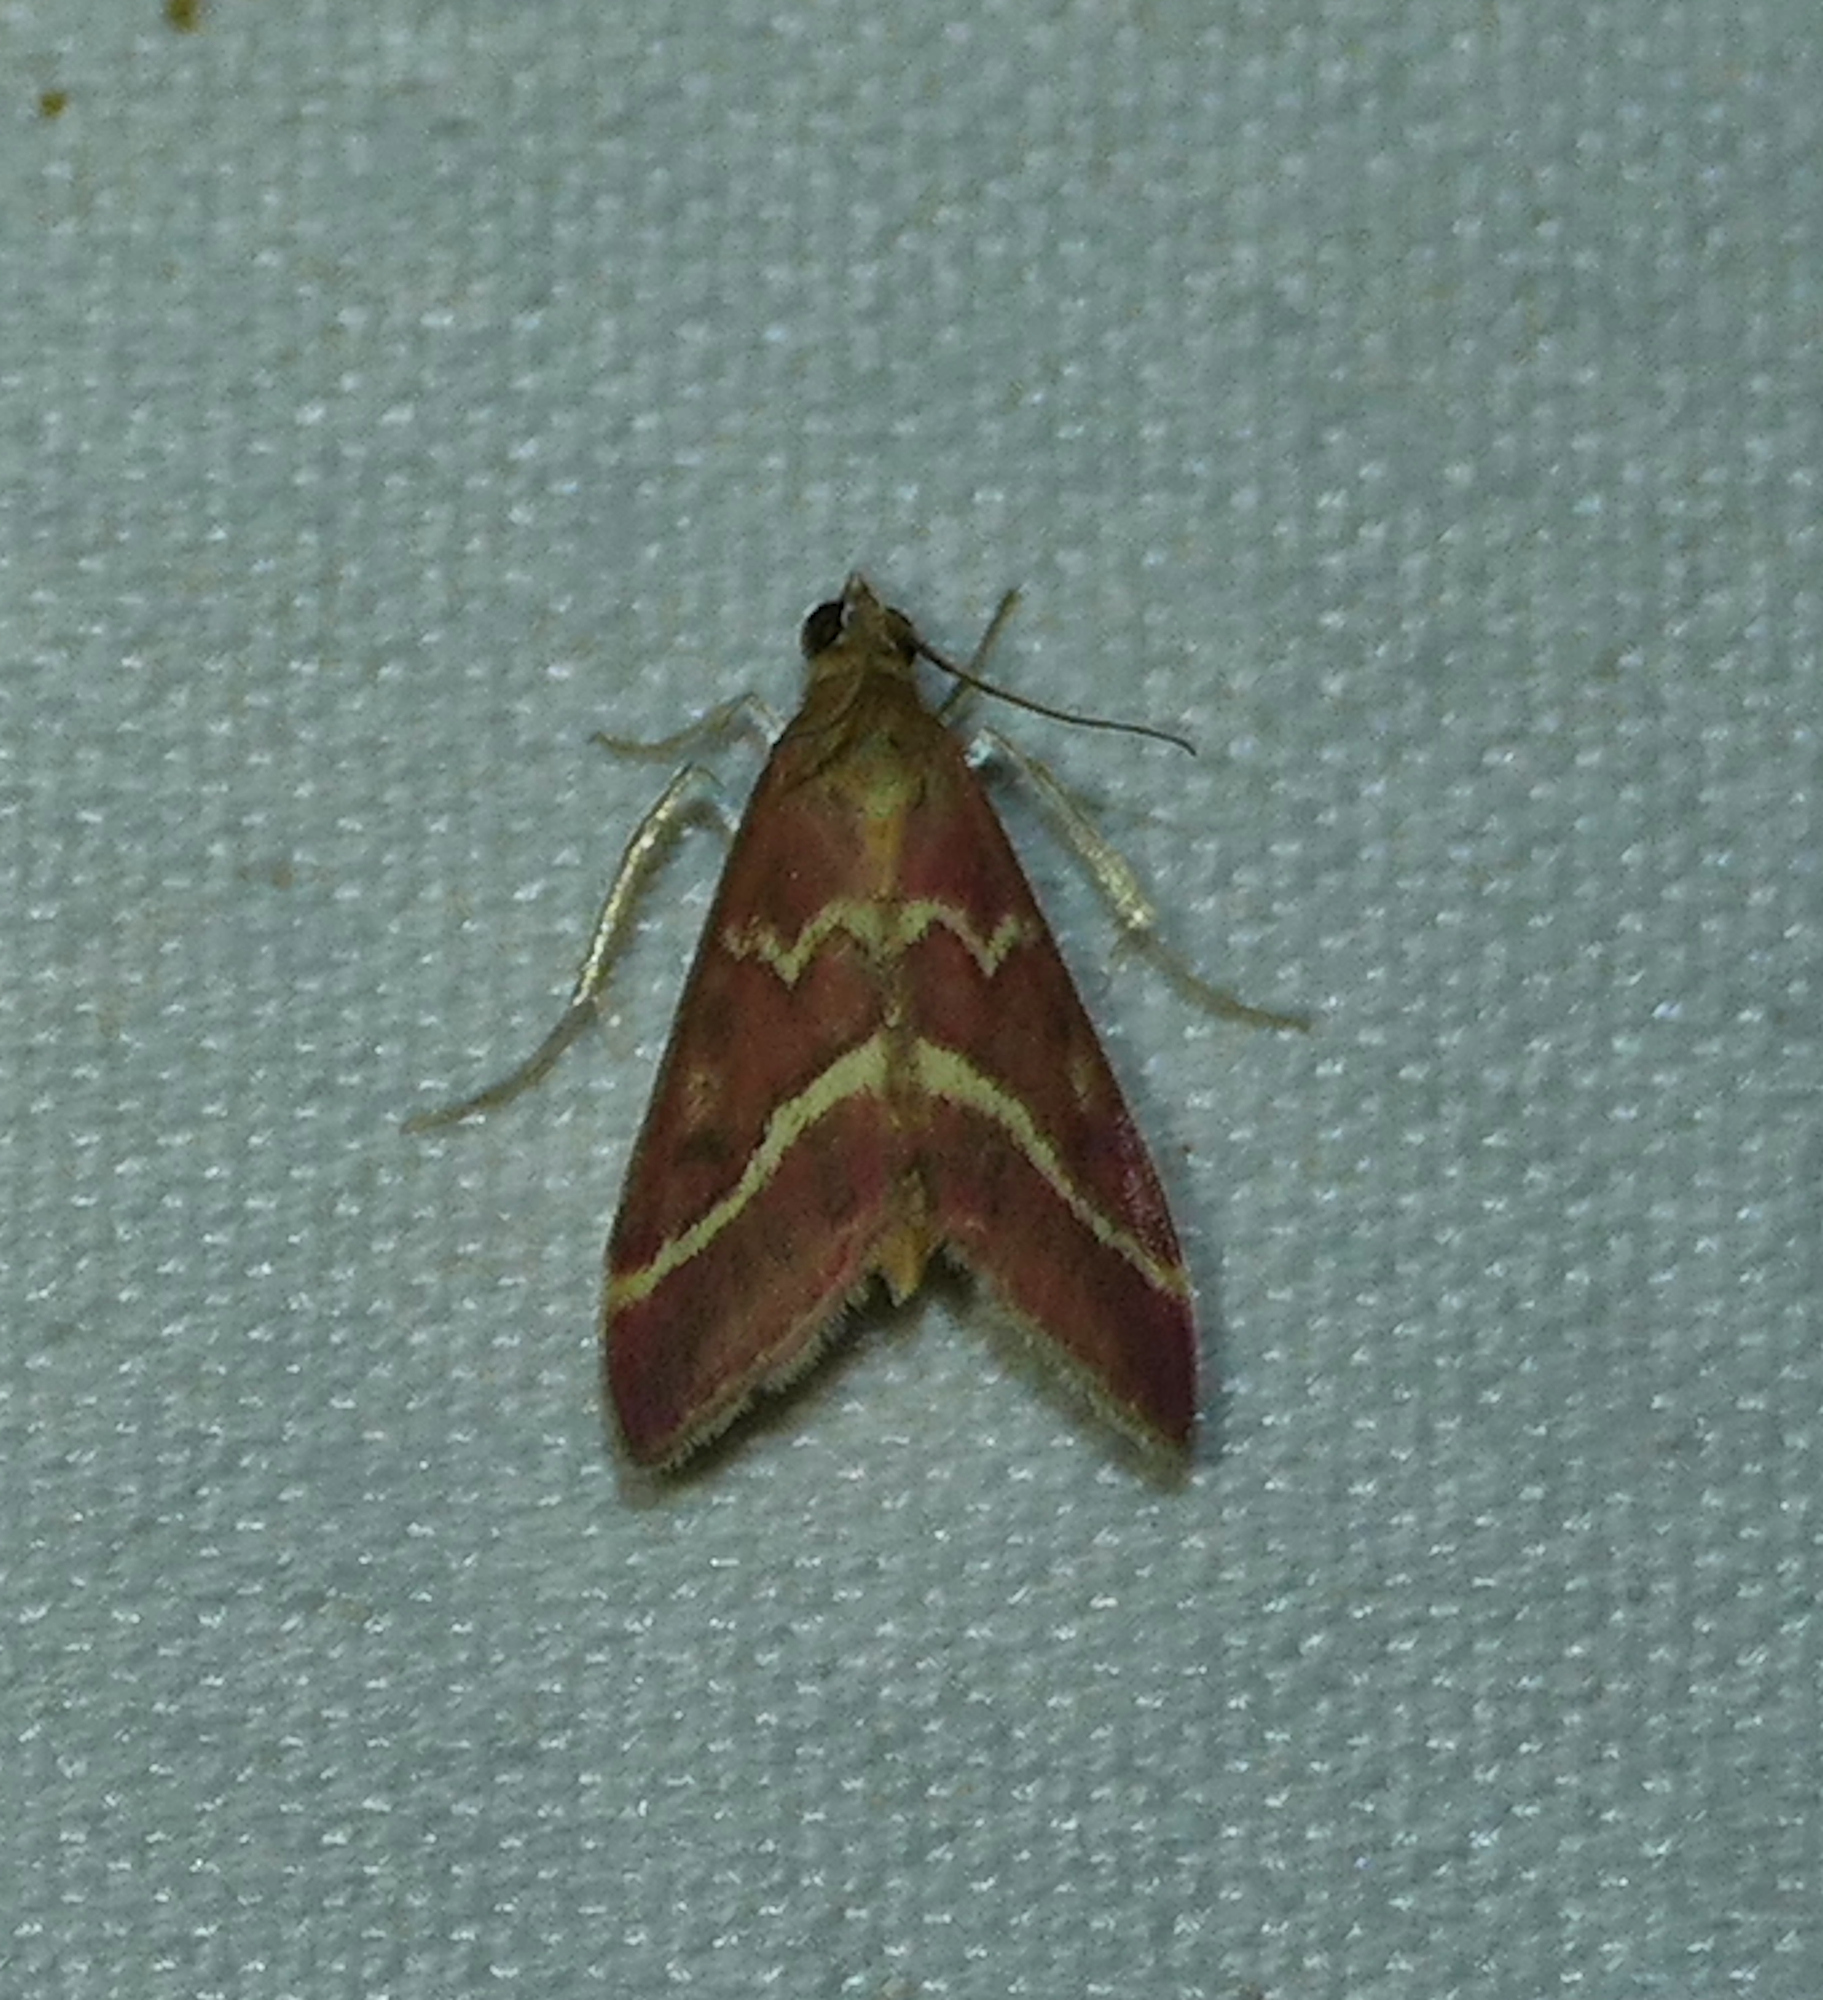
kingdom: Animalia
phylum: Arthropoda
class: Insecta
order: Lepidoptera
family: Crambidae
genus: Pyrausta
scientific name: Pyrausta volupialis
